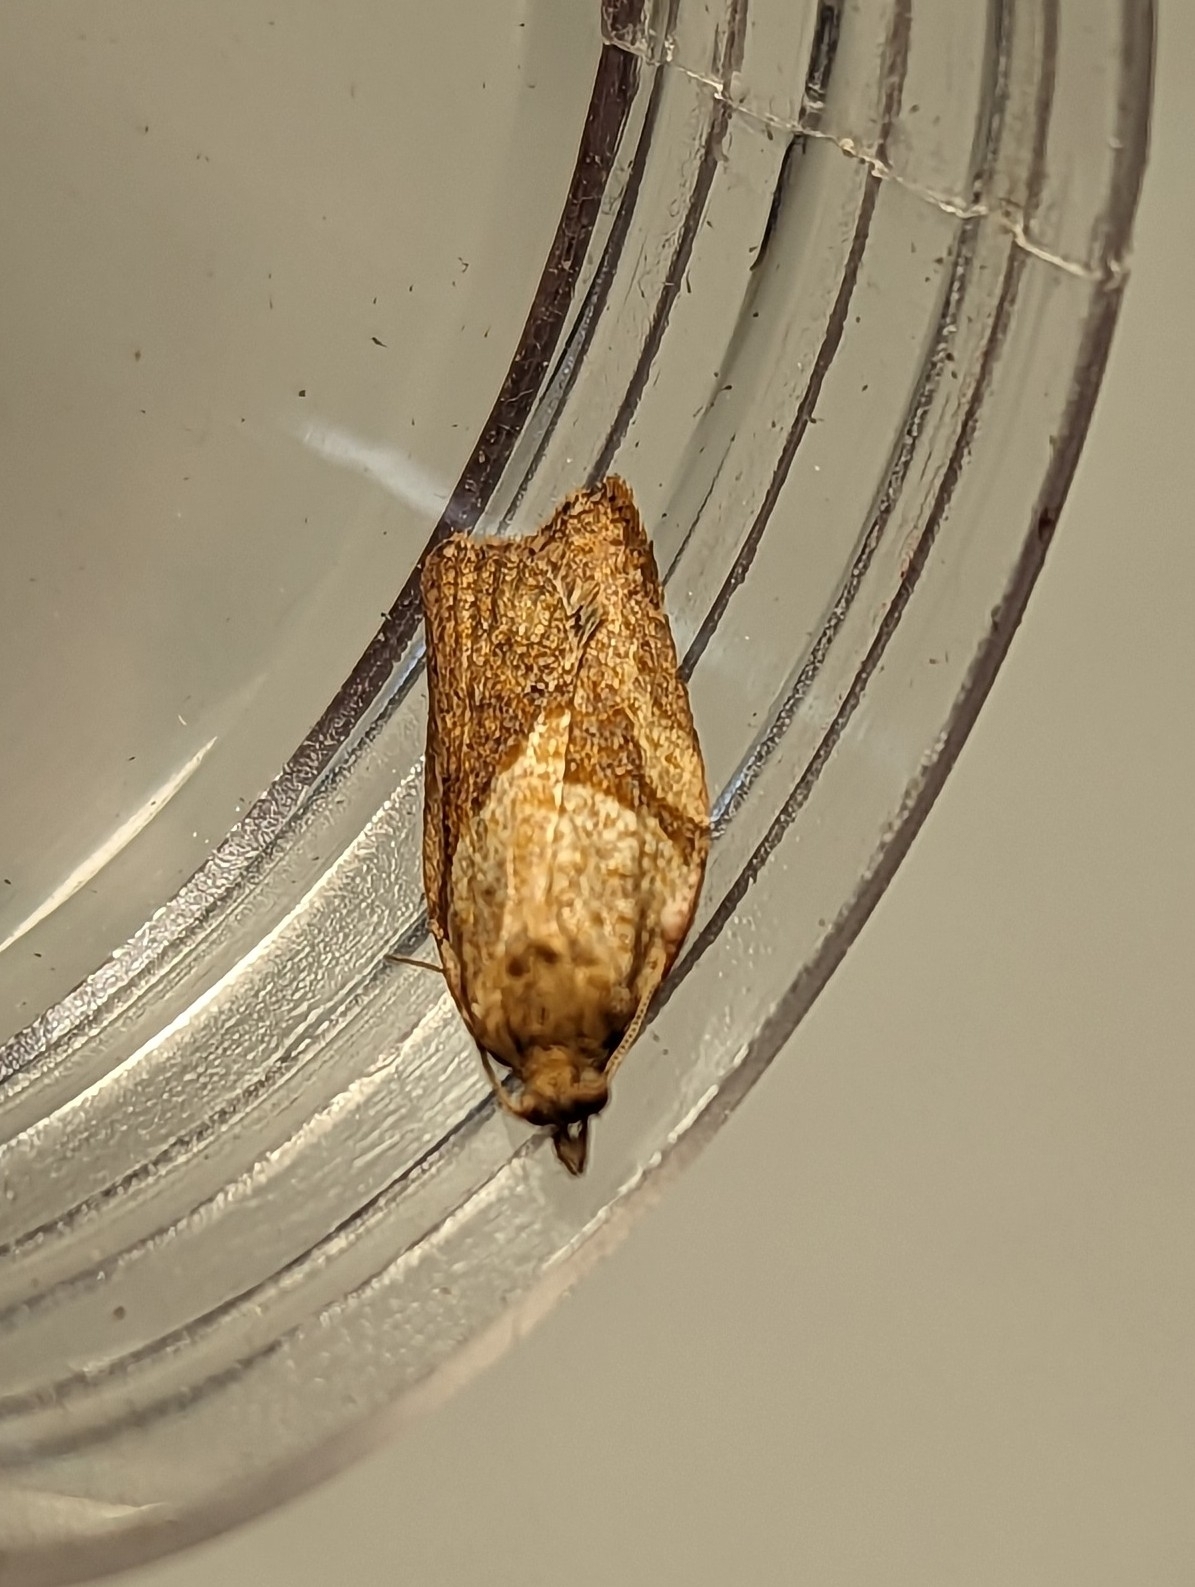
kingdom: Animalia
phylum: Arthropoda
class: Insecta
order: Lepidoptera
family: Tortricidae
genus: Epiphyas
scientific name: Epiphyas postvittana
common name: Light brown apple moth
